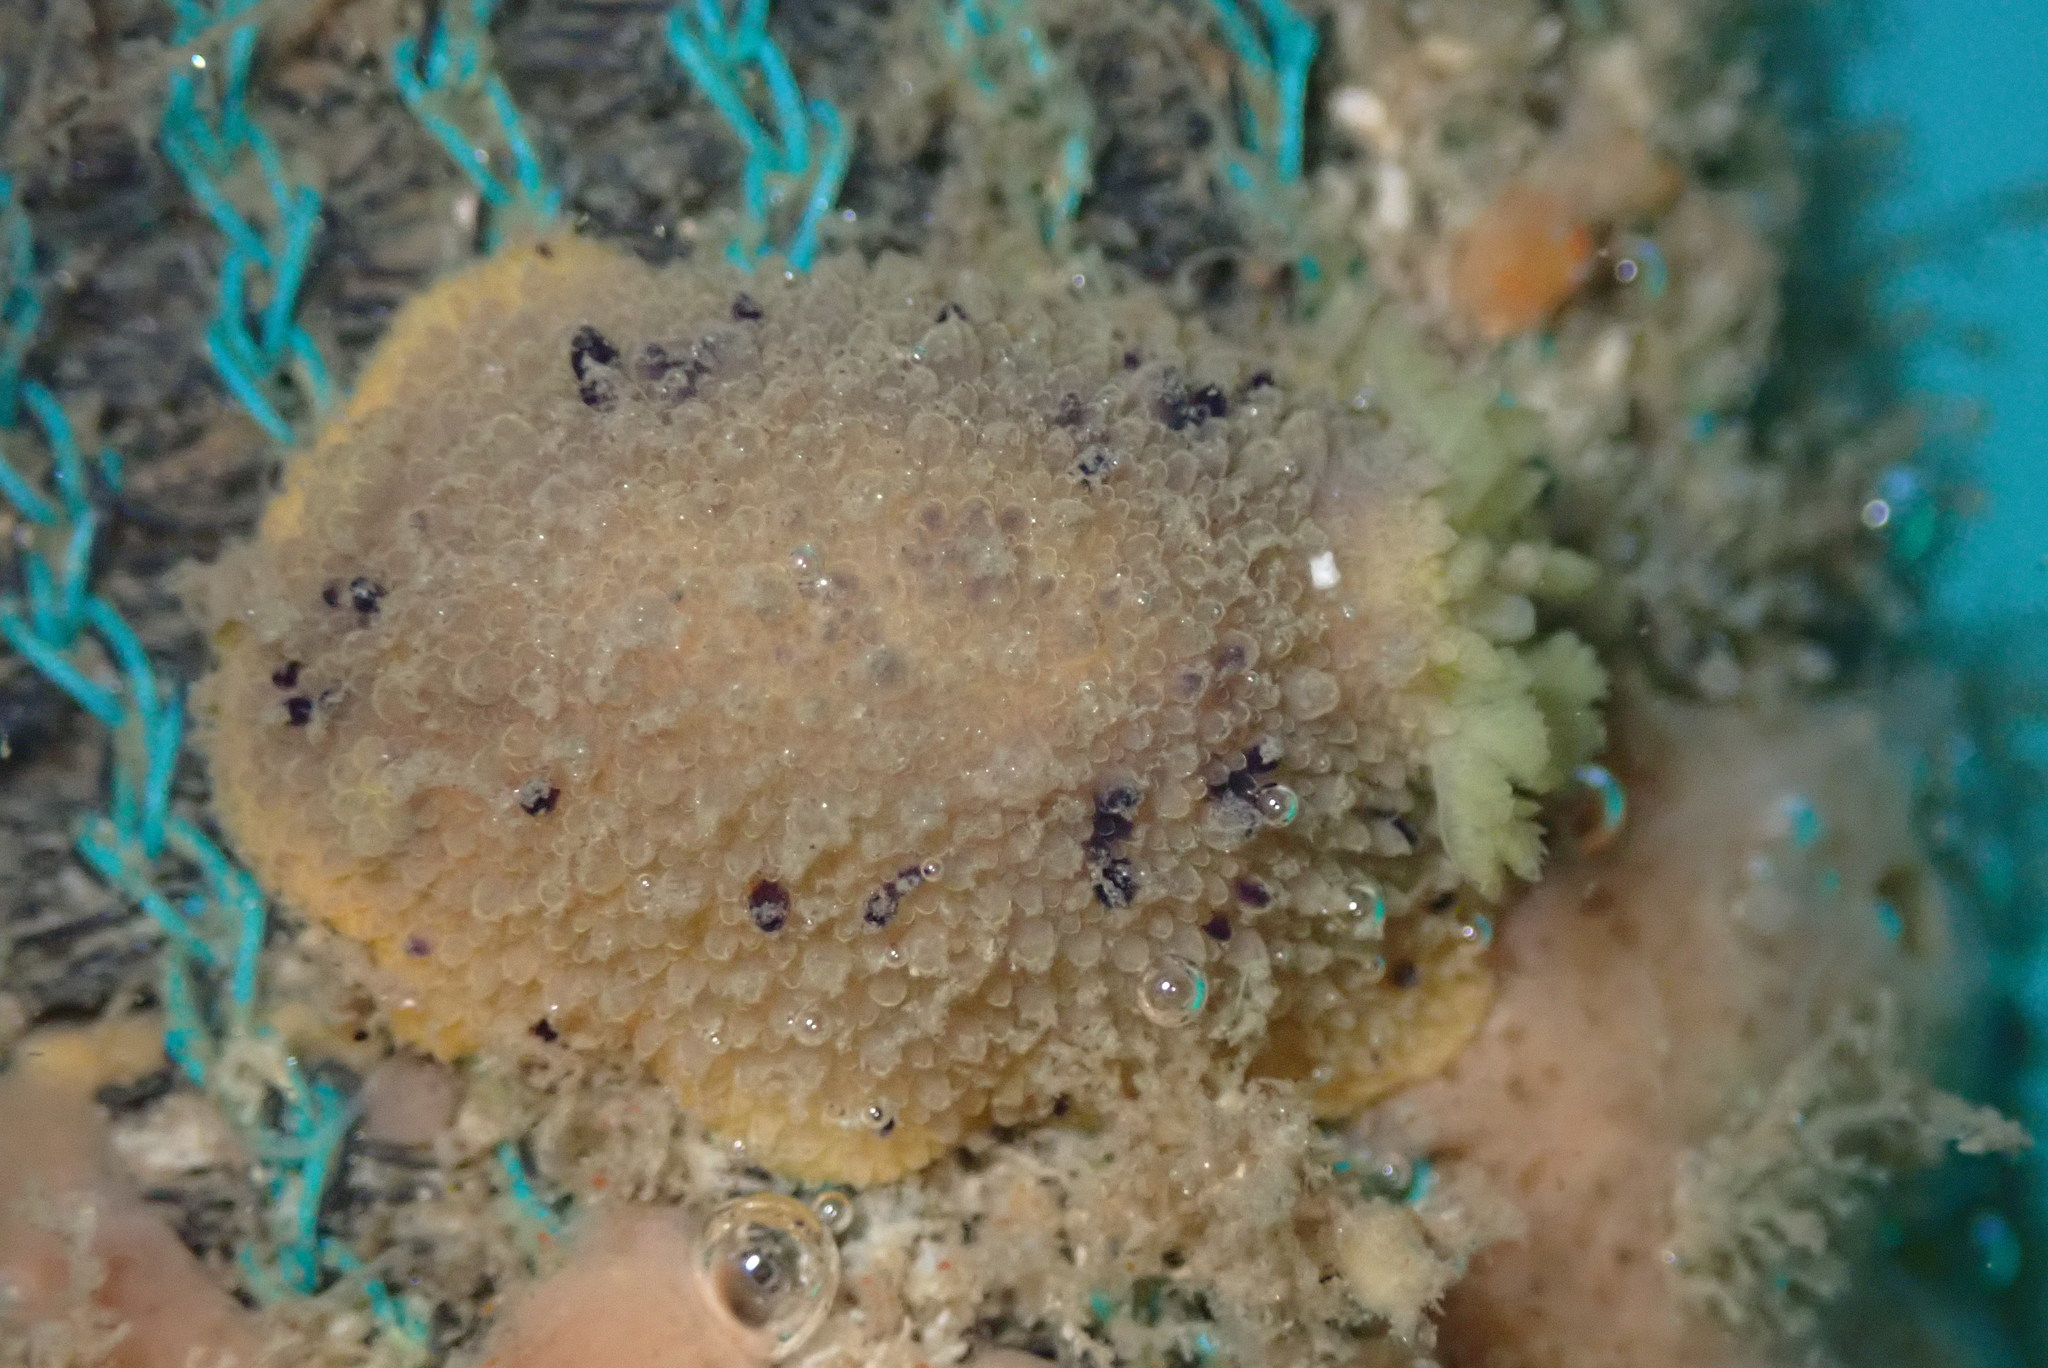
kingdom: Animalia
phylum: Mollusca
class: Gastropoda
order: Nudibranchia
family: Dorididae
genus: Doris
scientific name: Doris montereyensis
